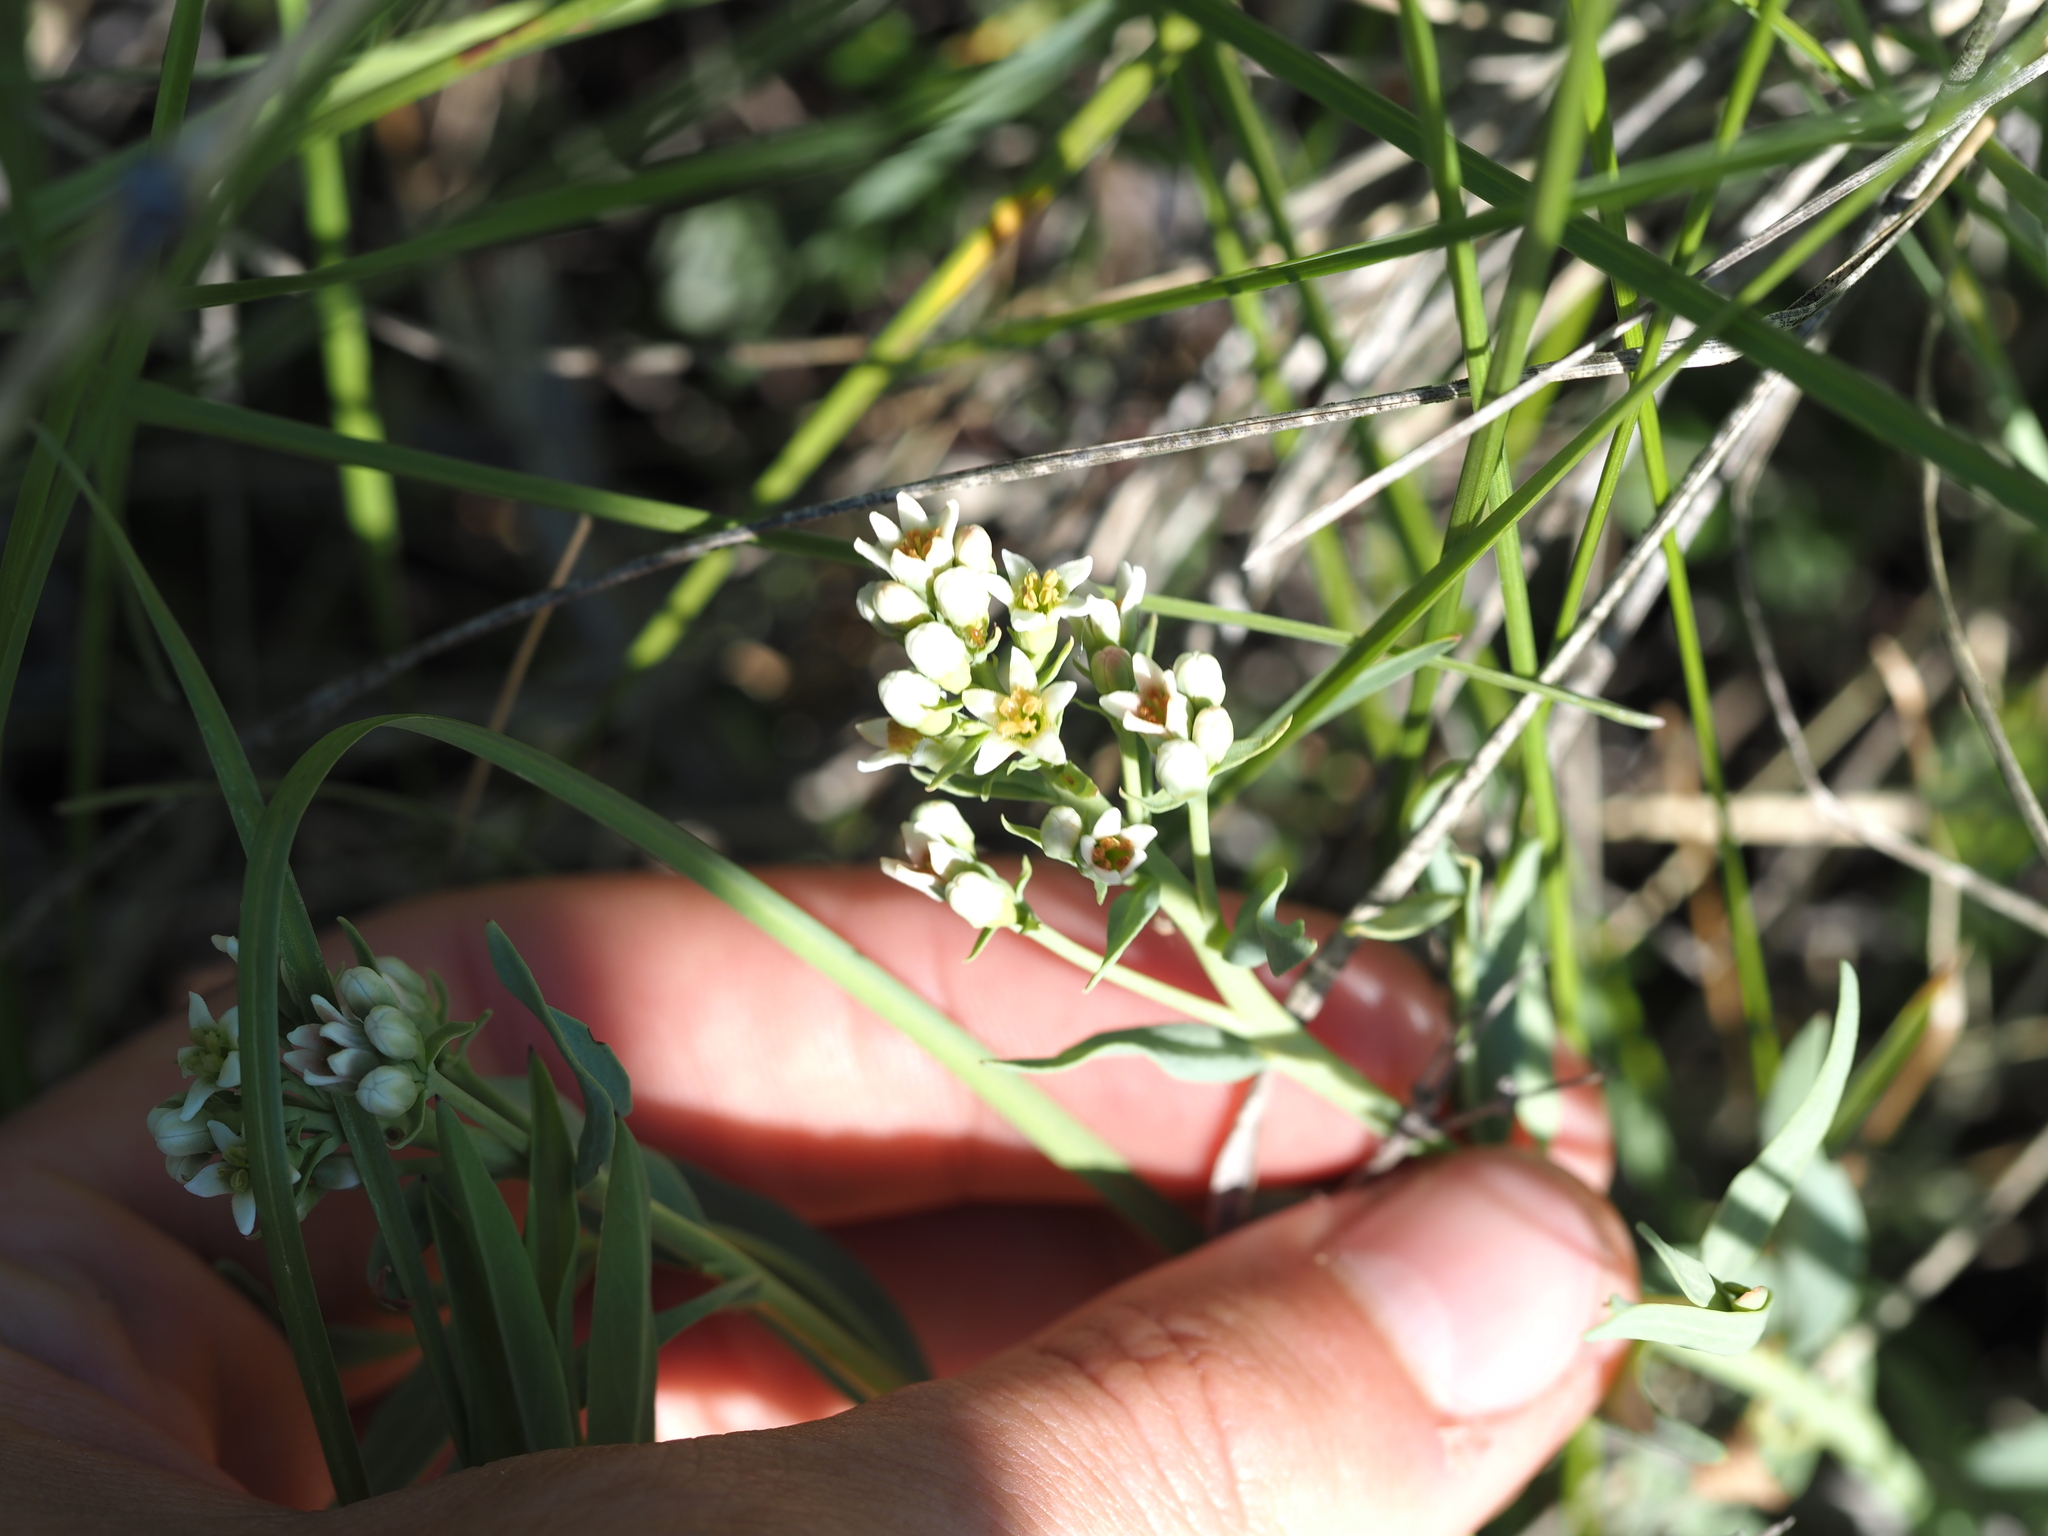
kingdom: Plantae
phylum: Tracheophyta
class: Magnoliopsida
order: Santalales
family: Comandraceae
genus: Comandra
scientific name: Comandra umbellata
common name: Bastard toadflax
